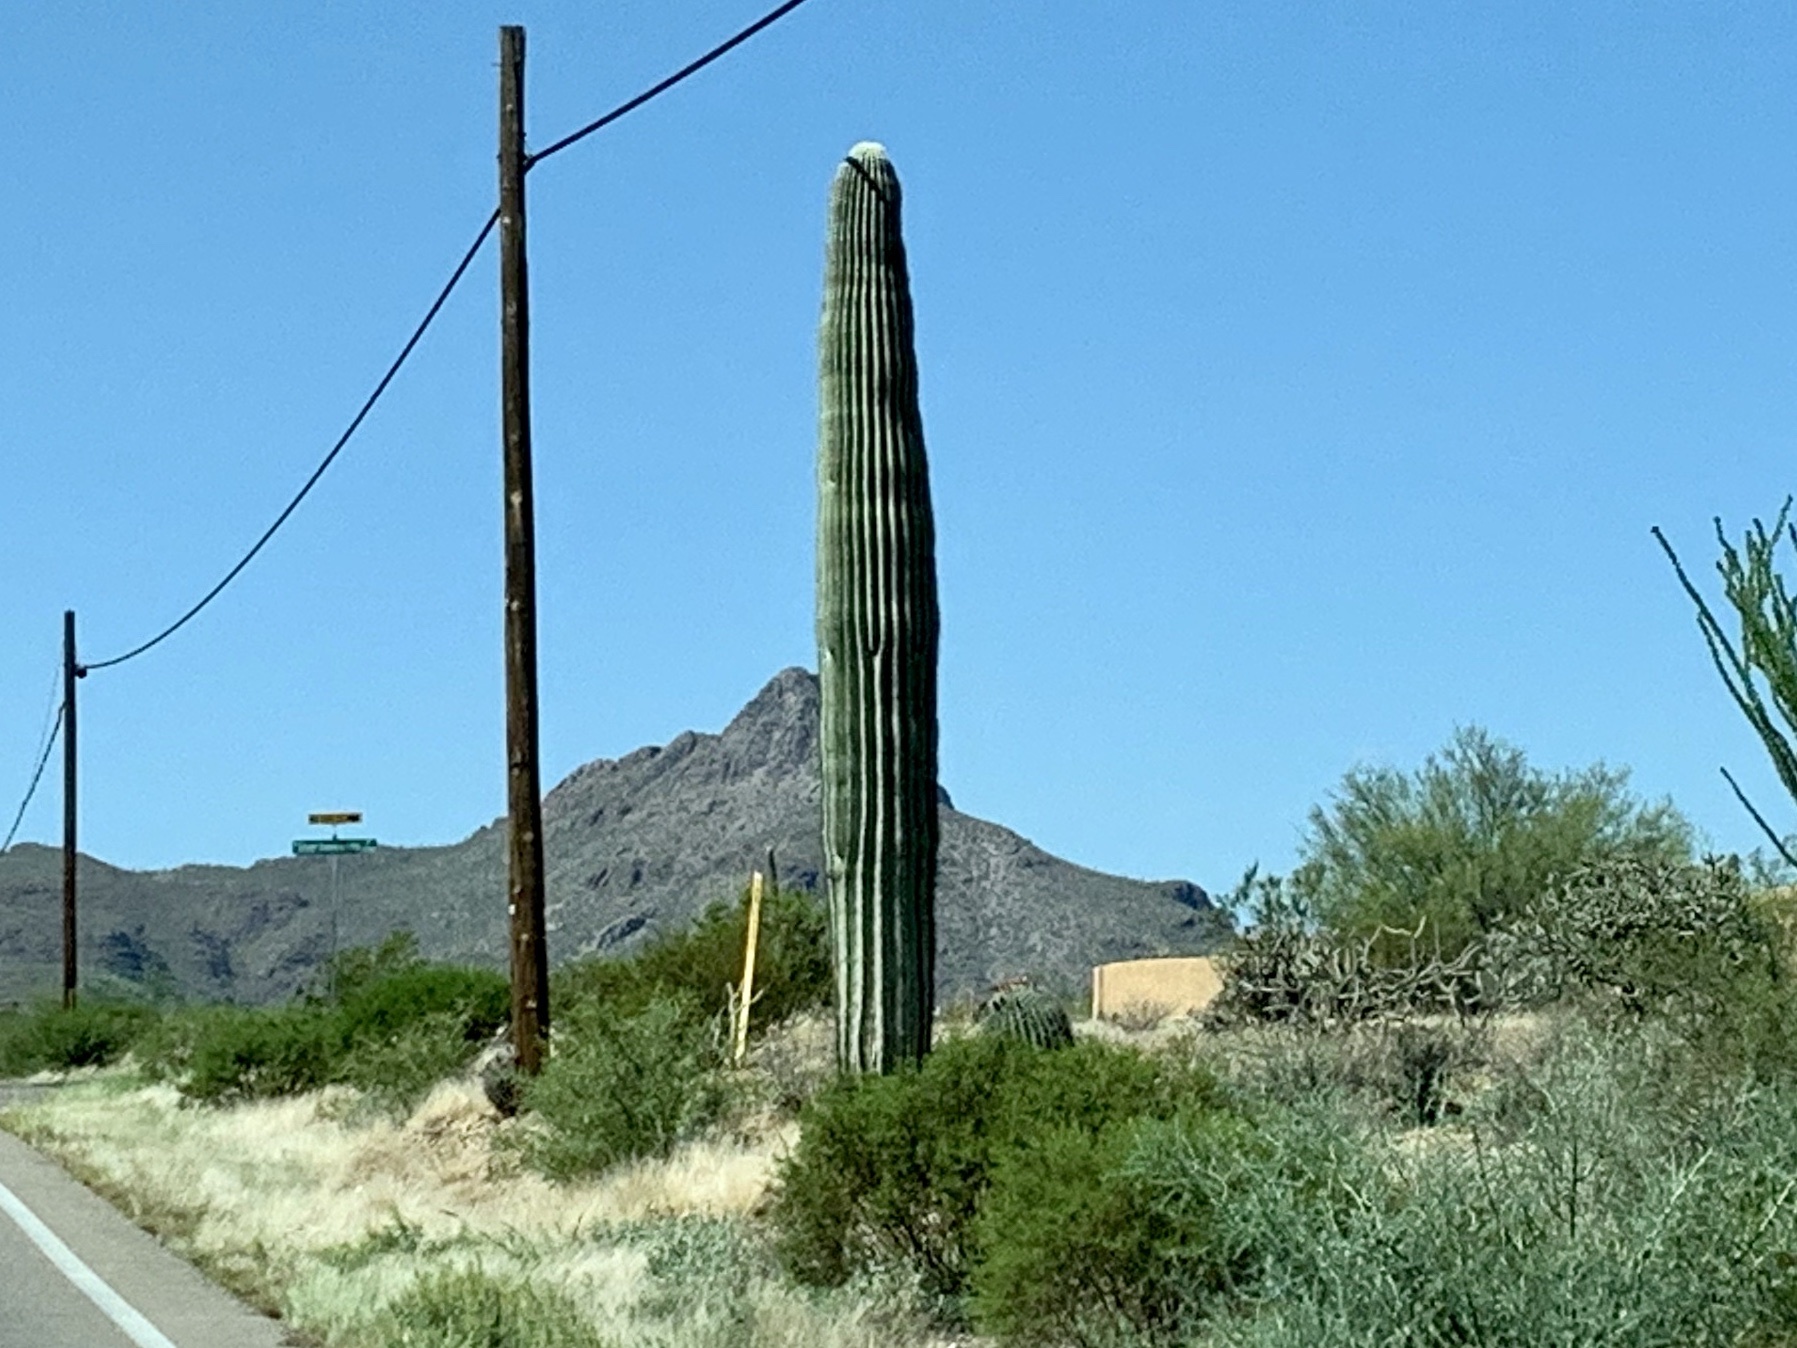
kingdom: Plantae
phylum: Tracheophyta
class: Magnoliopsida
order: Caryophyllales
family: Cactaceae
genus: Carnegiea
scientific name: Carnegiea gigantea
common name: Saguaro
